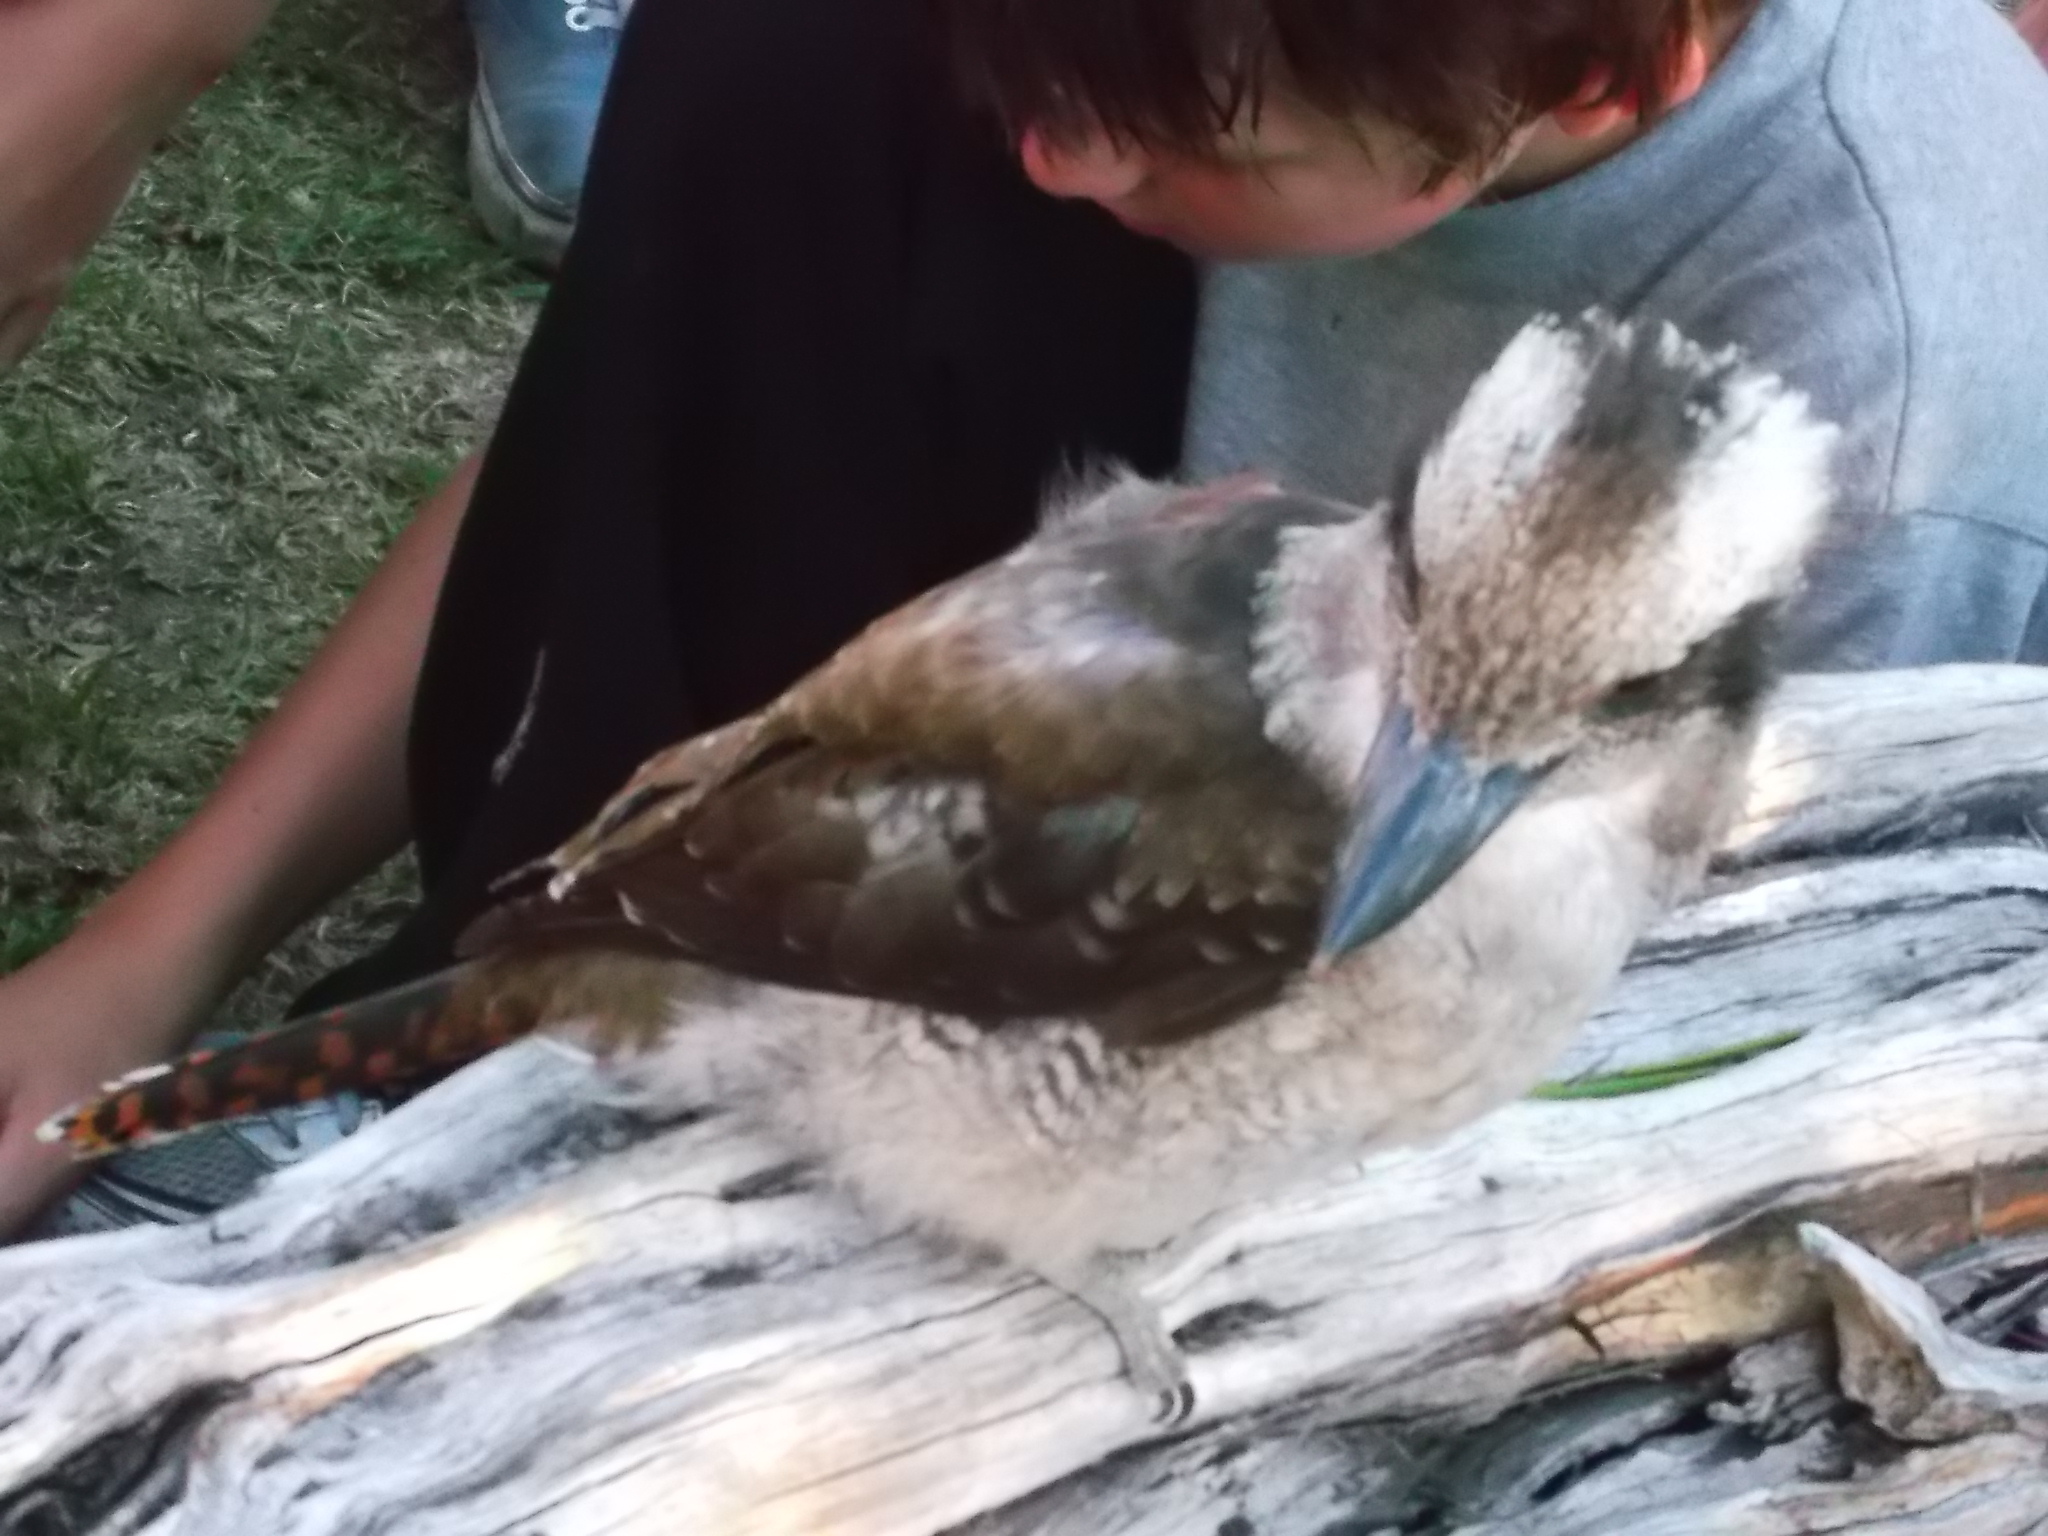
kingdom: Animalia
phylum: Chordata
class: Aves
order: Coraciiformes
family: Alcedinidae
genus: Dacelo
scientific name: Dacelo novaeguineae
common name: Laughing kookaburra
